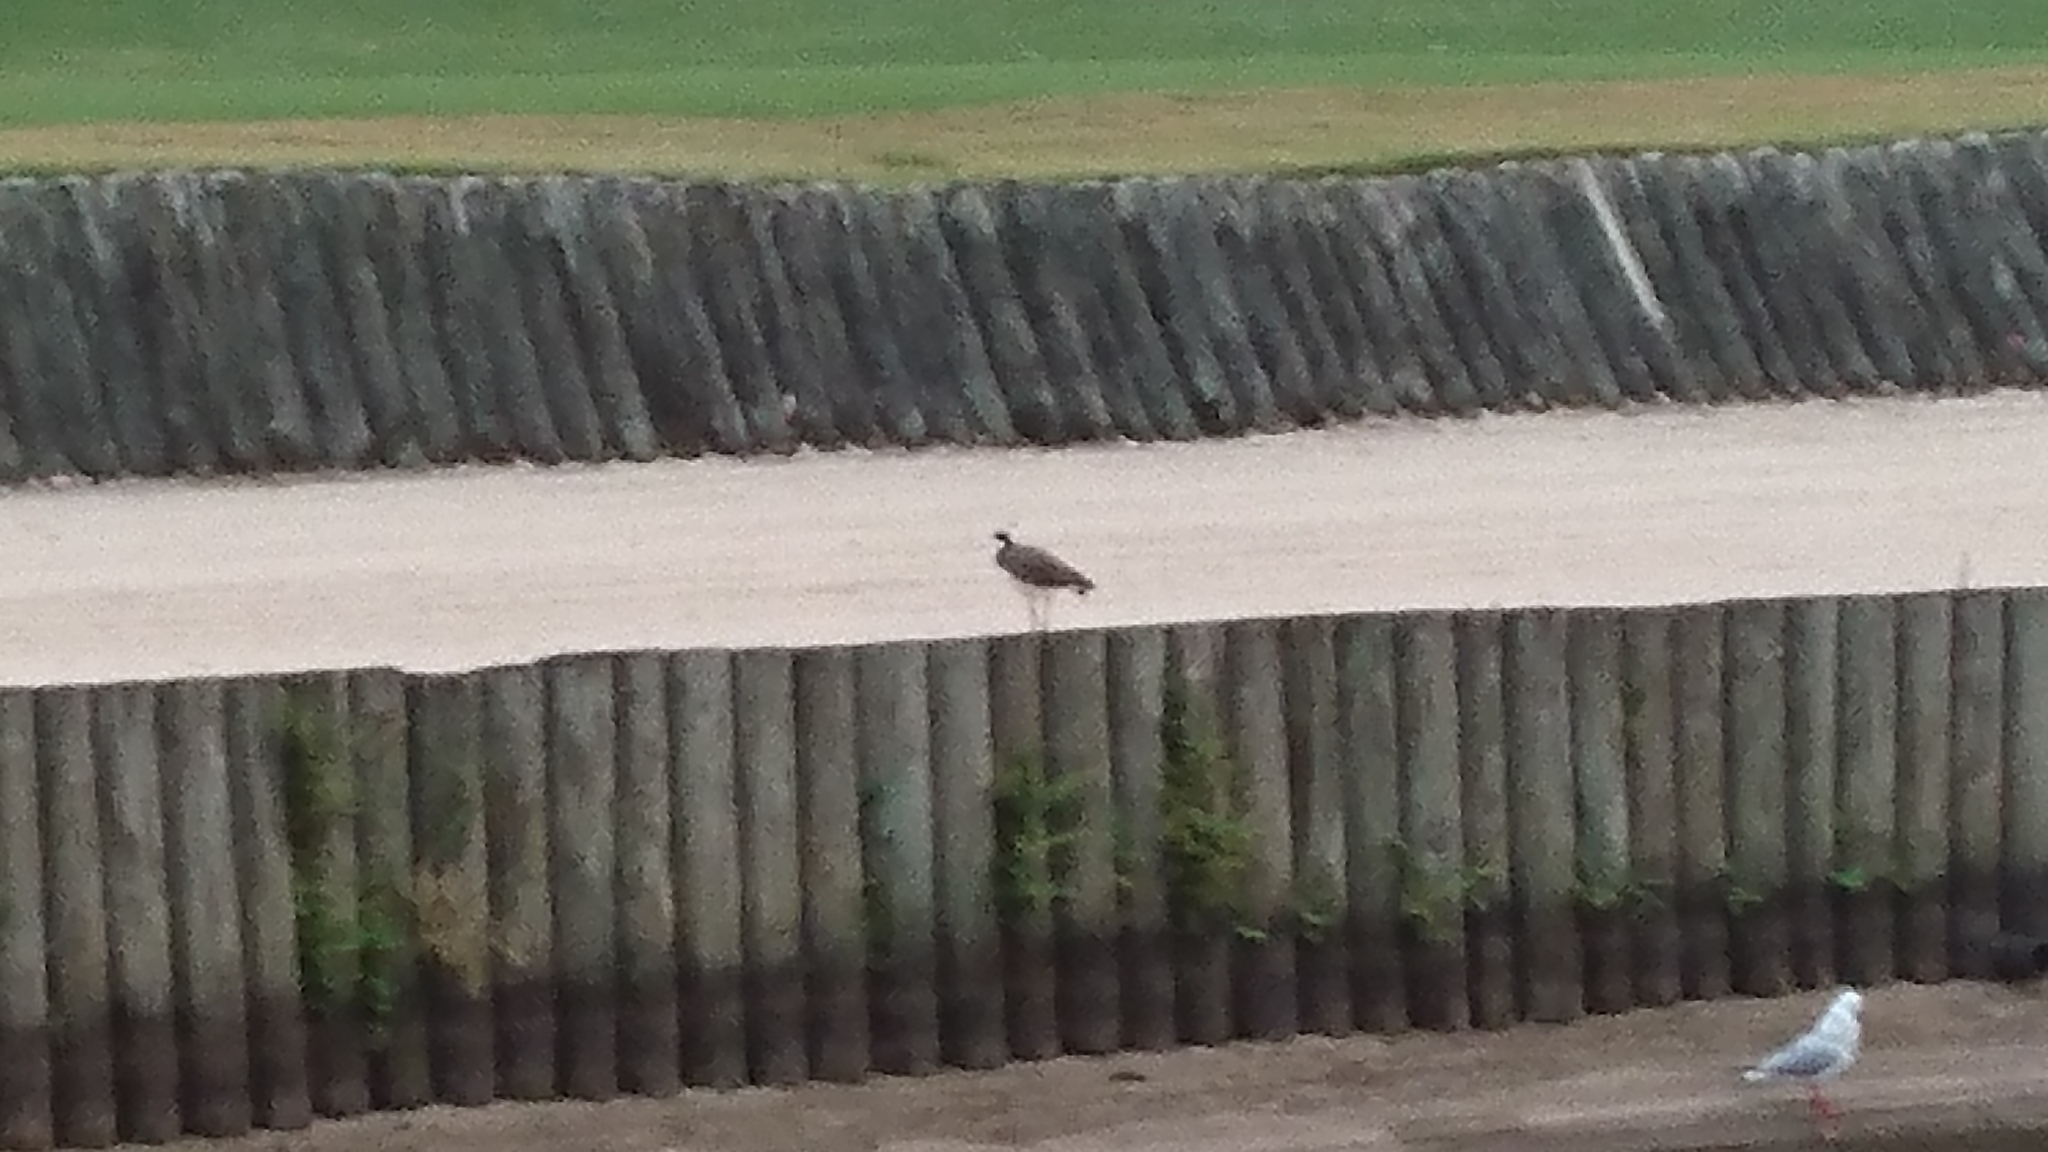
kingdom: Animalia
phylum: Chordata
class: Aves
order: Charadriiformes
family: Charadriidae
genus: Vanellus
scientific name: Vanellus miles
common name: Masked lapwing
